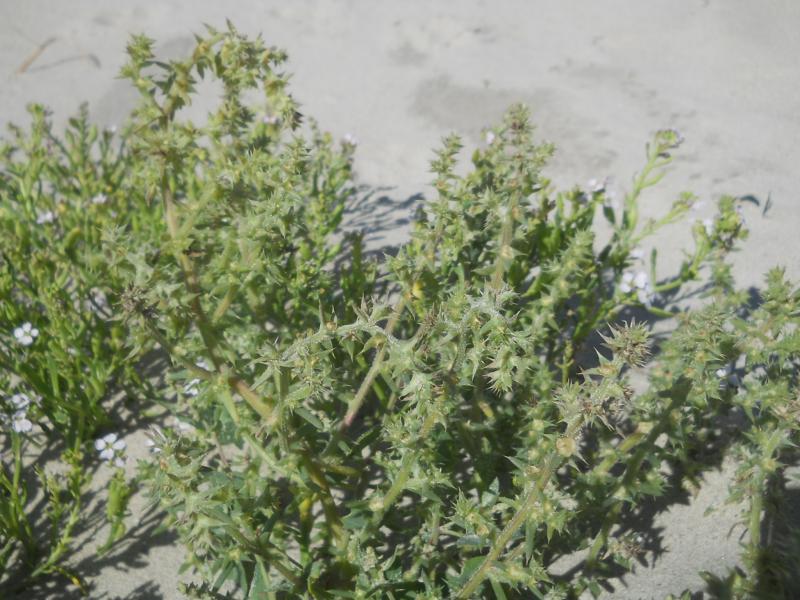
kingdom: Plantae
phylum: Tracheophyta
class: Magnoliopsida
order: Caryophyllales
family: Amaranthaceae
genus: Salsola
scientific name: Salsola kali
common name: Saltwort
